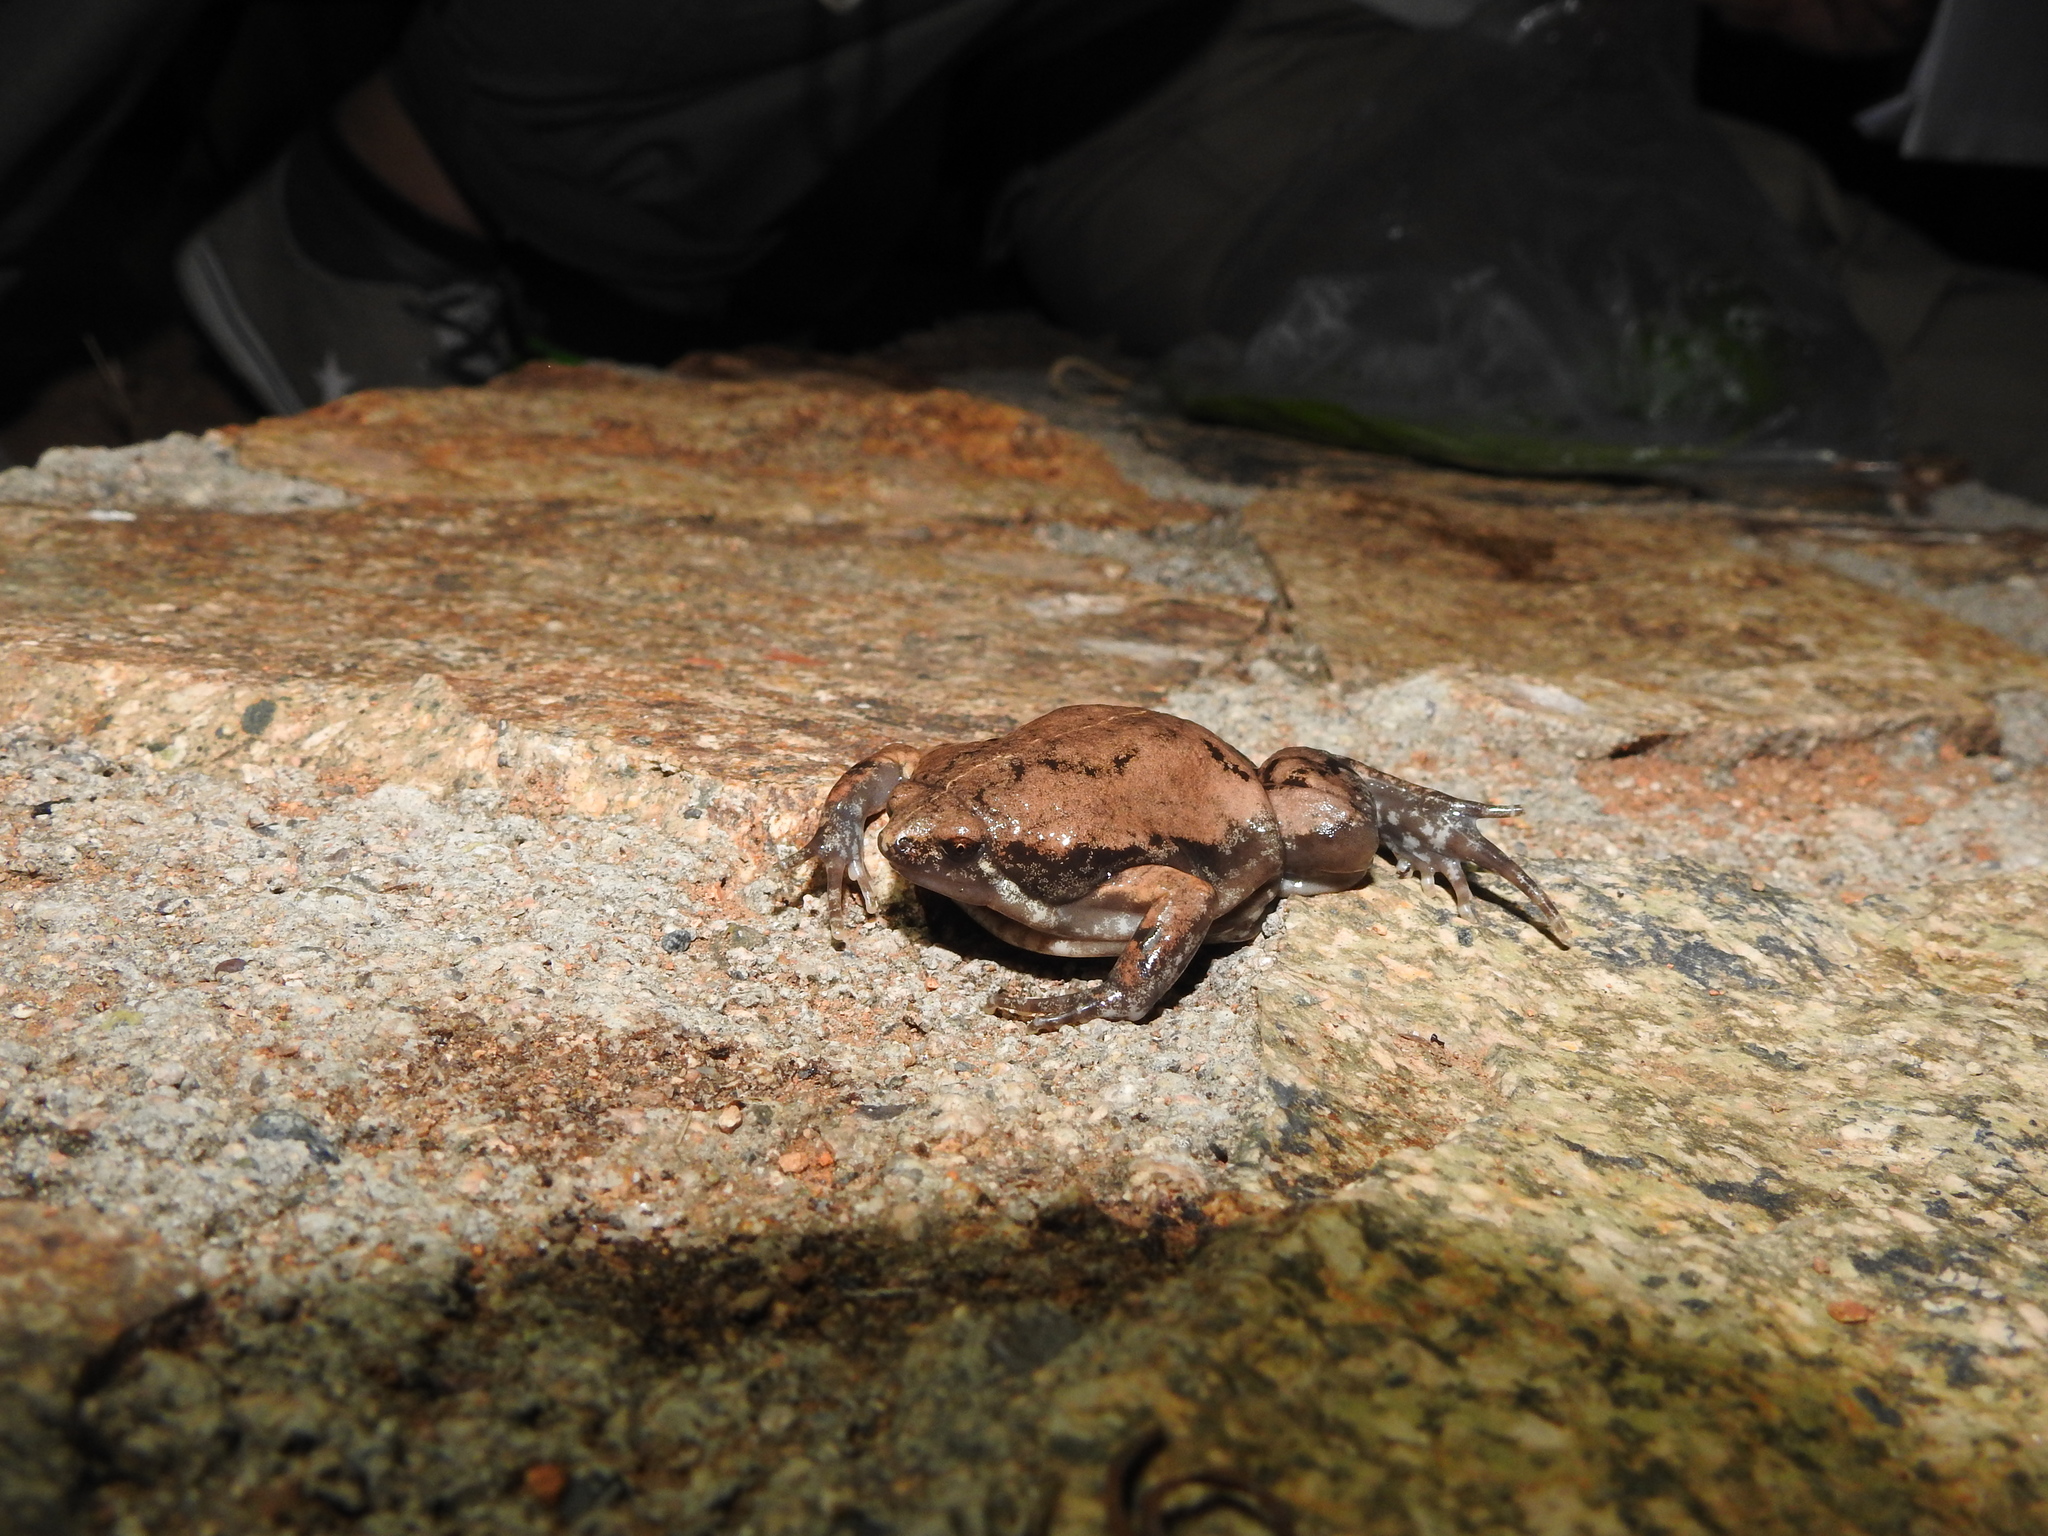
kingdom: Animalia
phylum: Chordata
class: Amphibia
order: Anura
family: Microhylidae
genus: Hypopachus
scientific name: Hypopachus variolosus
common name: Sheep frog
